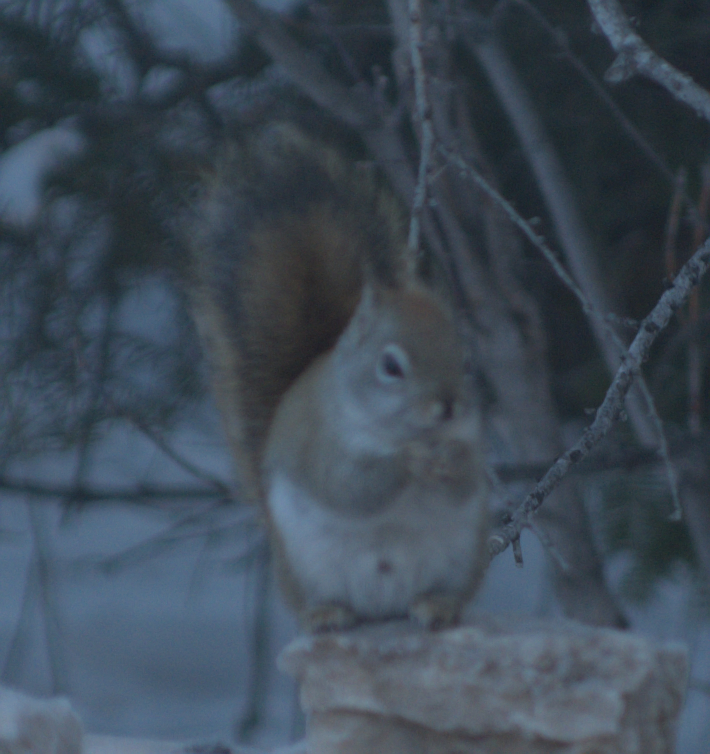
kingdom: Animalia
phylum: Chordata
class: Mammalia
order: Rodentia
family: Sciuridae
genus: Tamiasciurus
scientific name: Tamiasciurus hudsonicus
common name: Red squirrel
